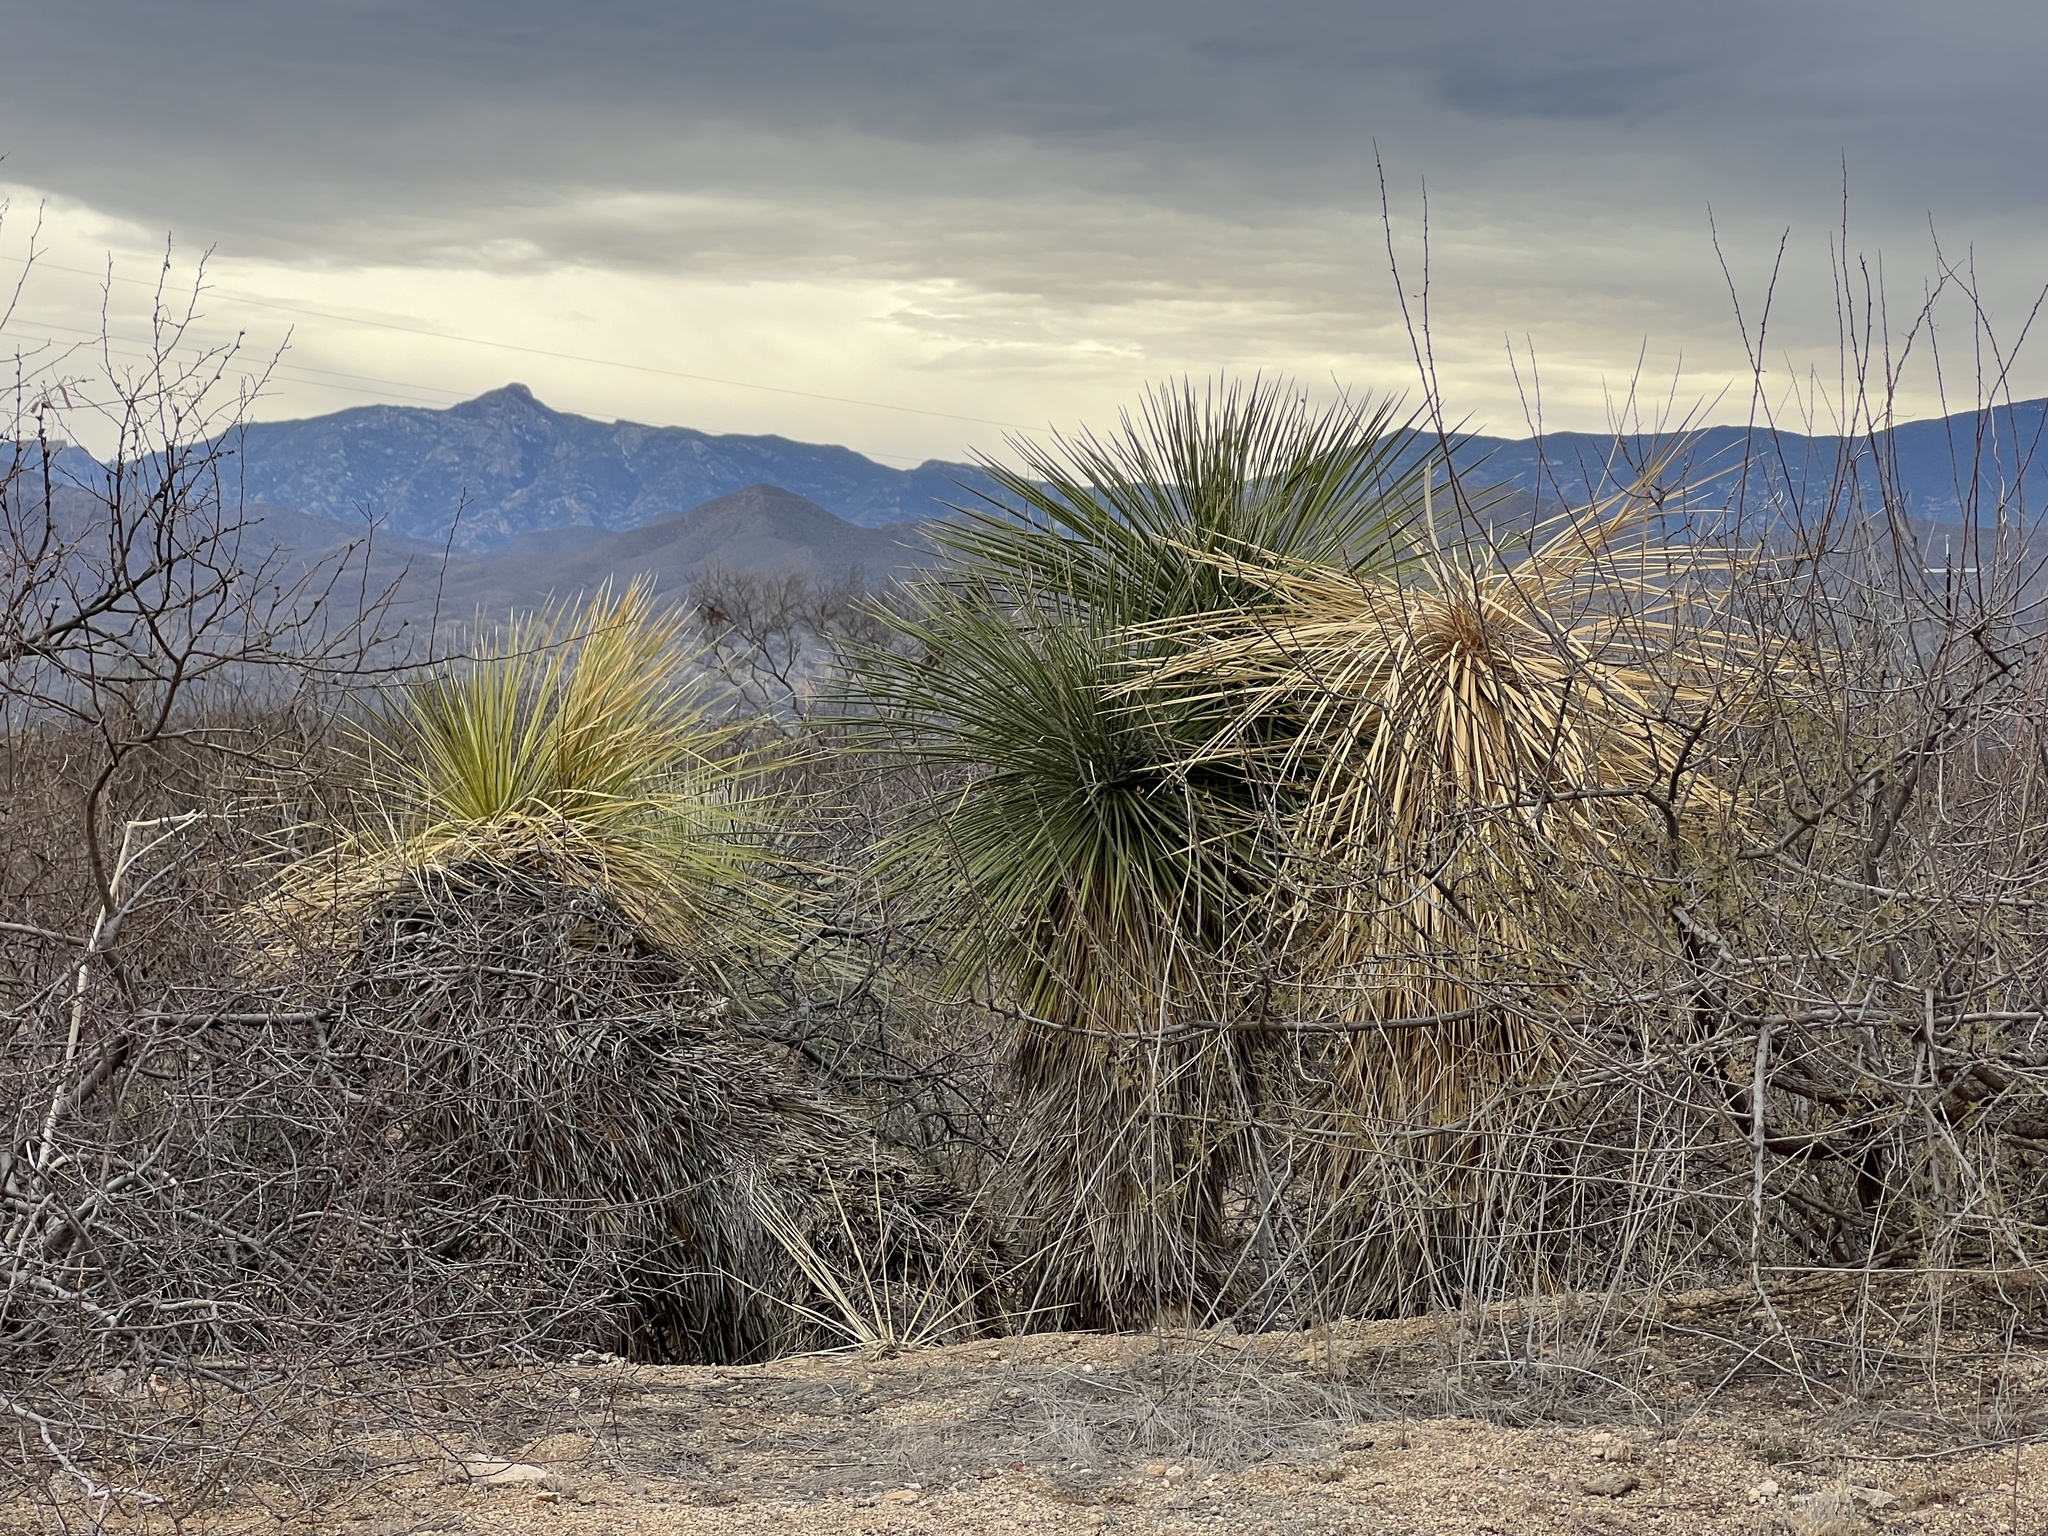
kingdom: Plantae
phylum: Tracheophyta
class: Liliopsida
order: Asparagales
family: Asparagaceae
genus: Yucca
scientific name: Yucca elata
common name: Palmella
